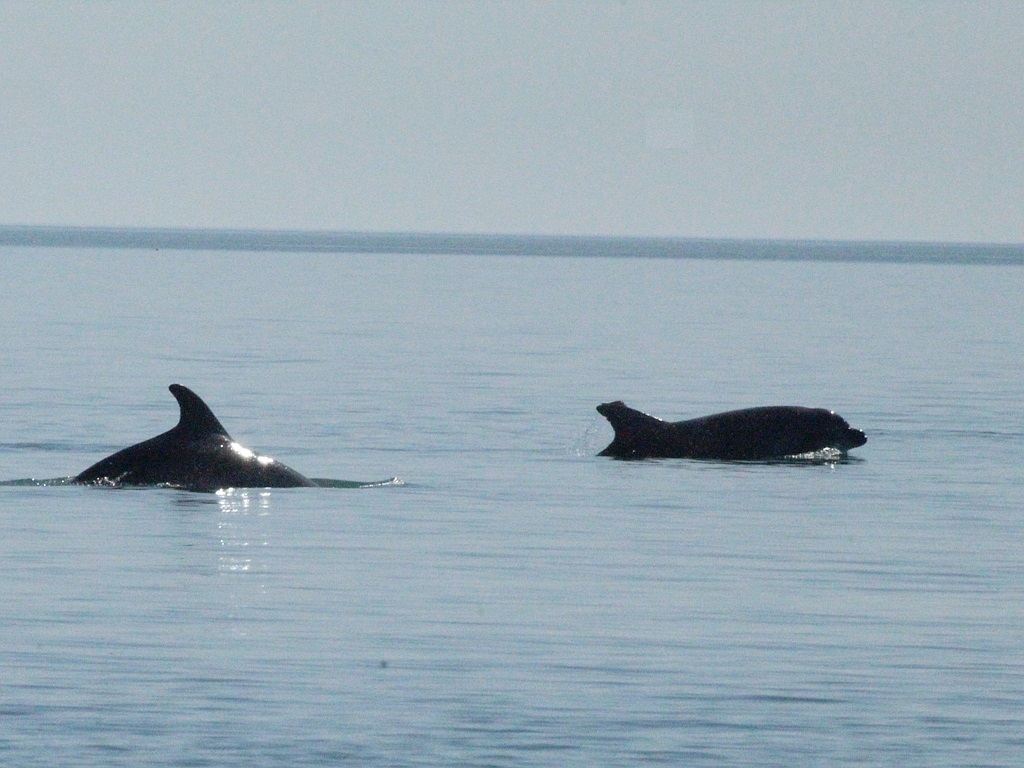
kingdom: Animalia
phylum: Chordata
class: Mammalia
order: Cetacea
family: Delphinidae
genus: Tursiops
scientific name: Tursiops truncatus
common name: Bottlenose dolphin
